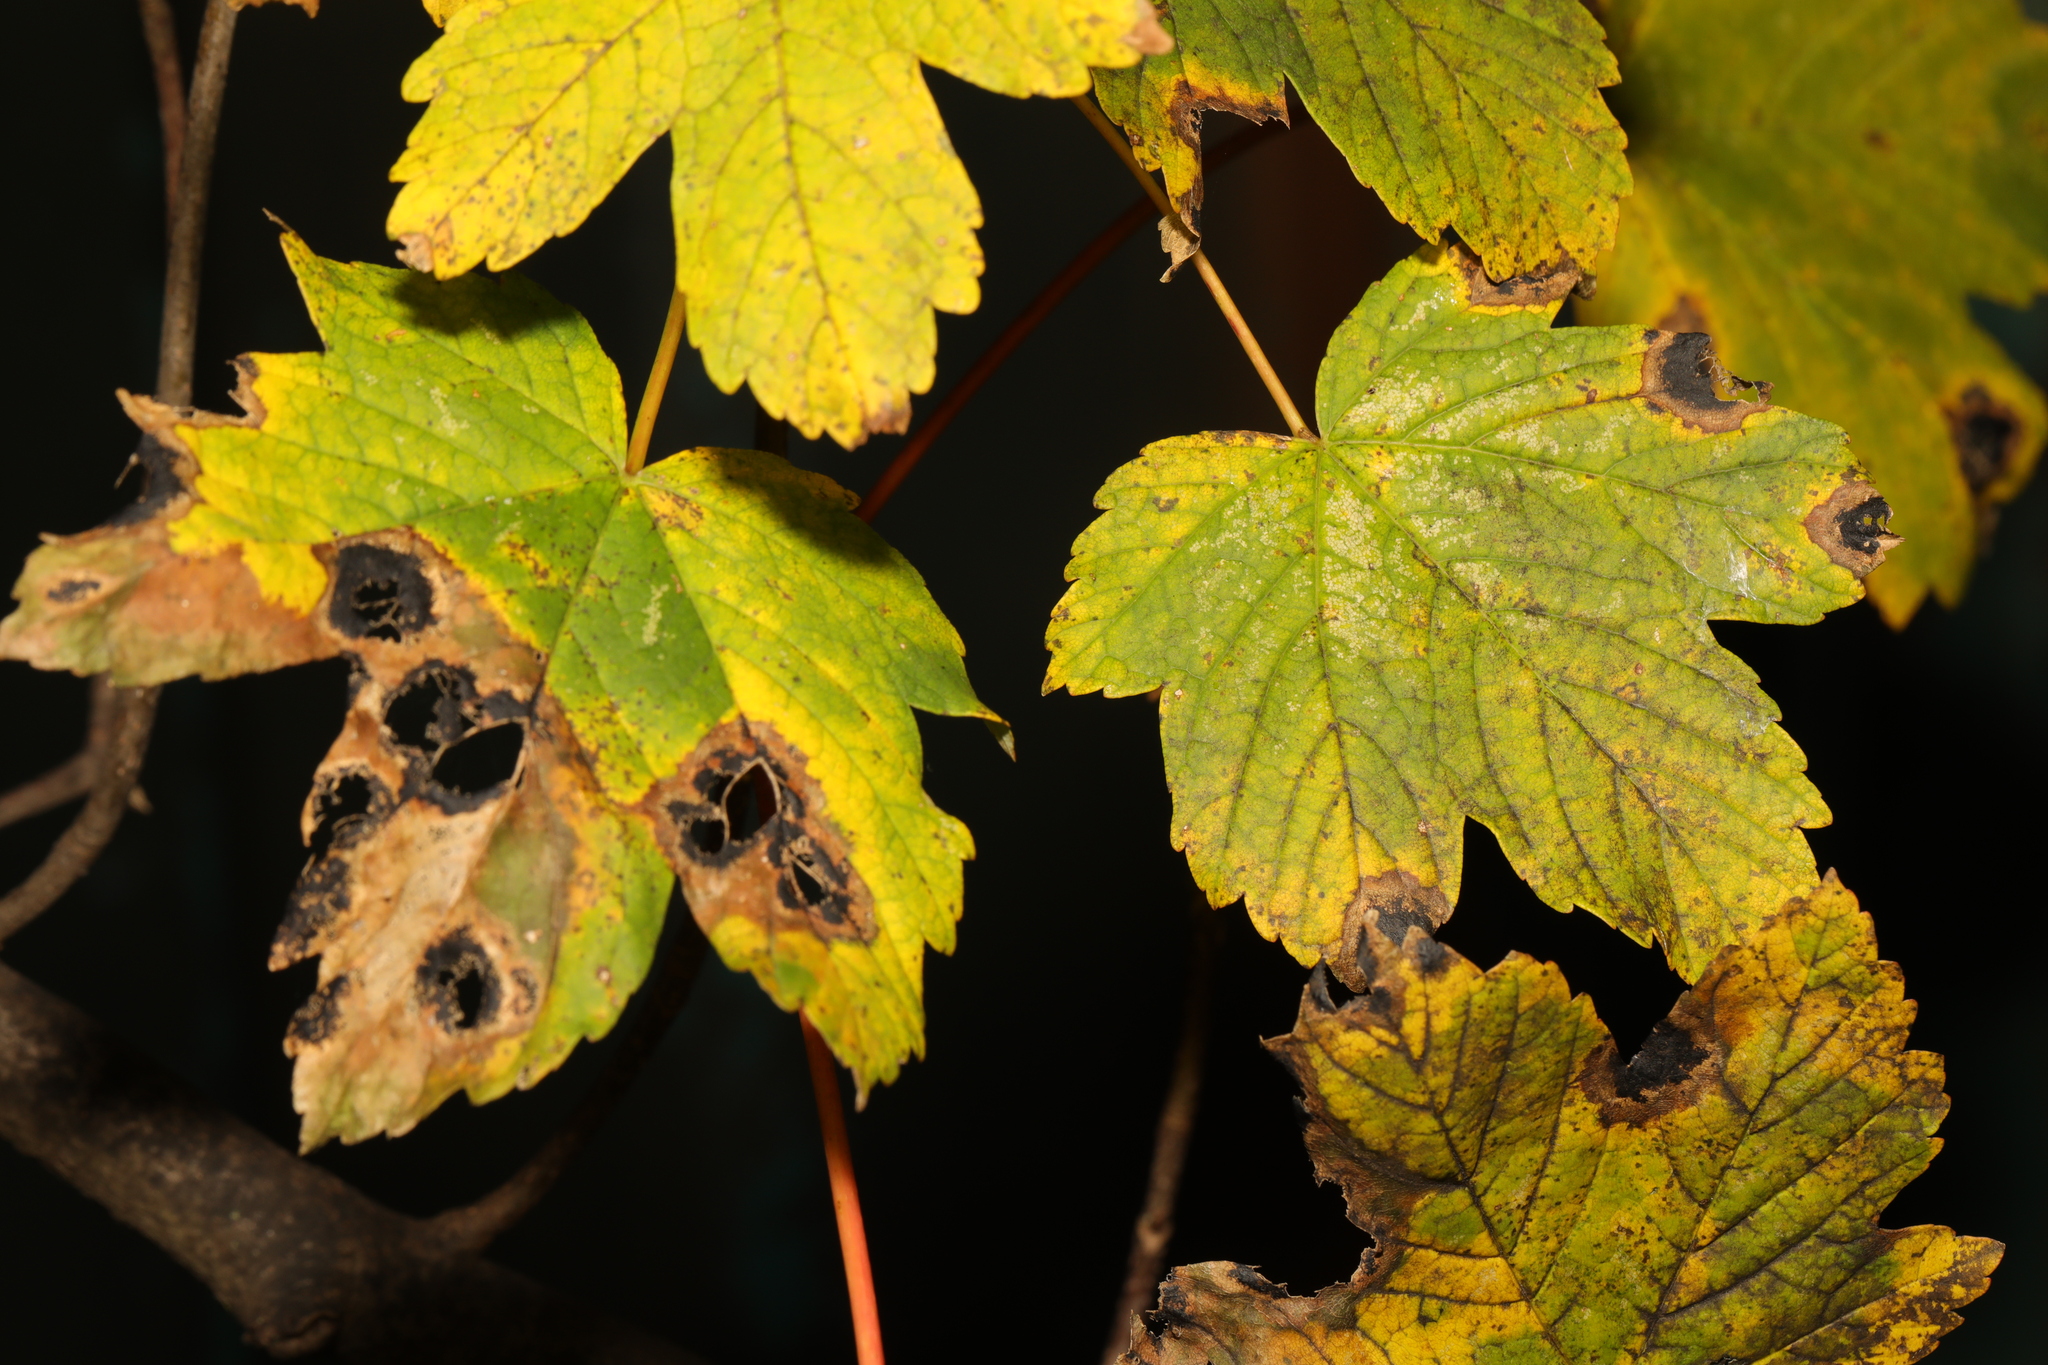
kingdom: Plantae
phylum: Tracheophyta
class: Magnoliopsida
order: Sapindales
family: Sapindaceae
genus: Acer
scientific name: Acer pseudoplatanus
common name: Sycamore
